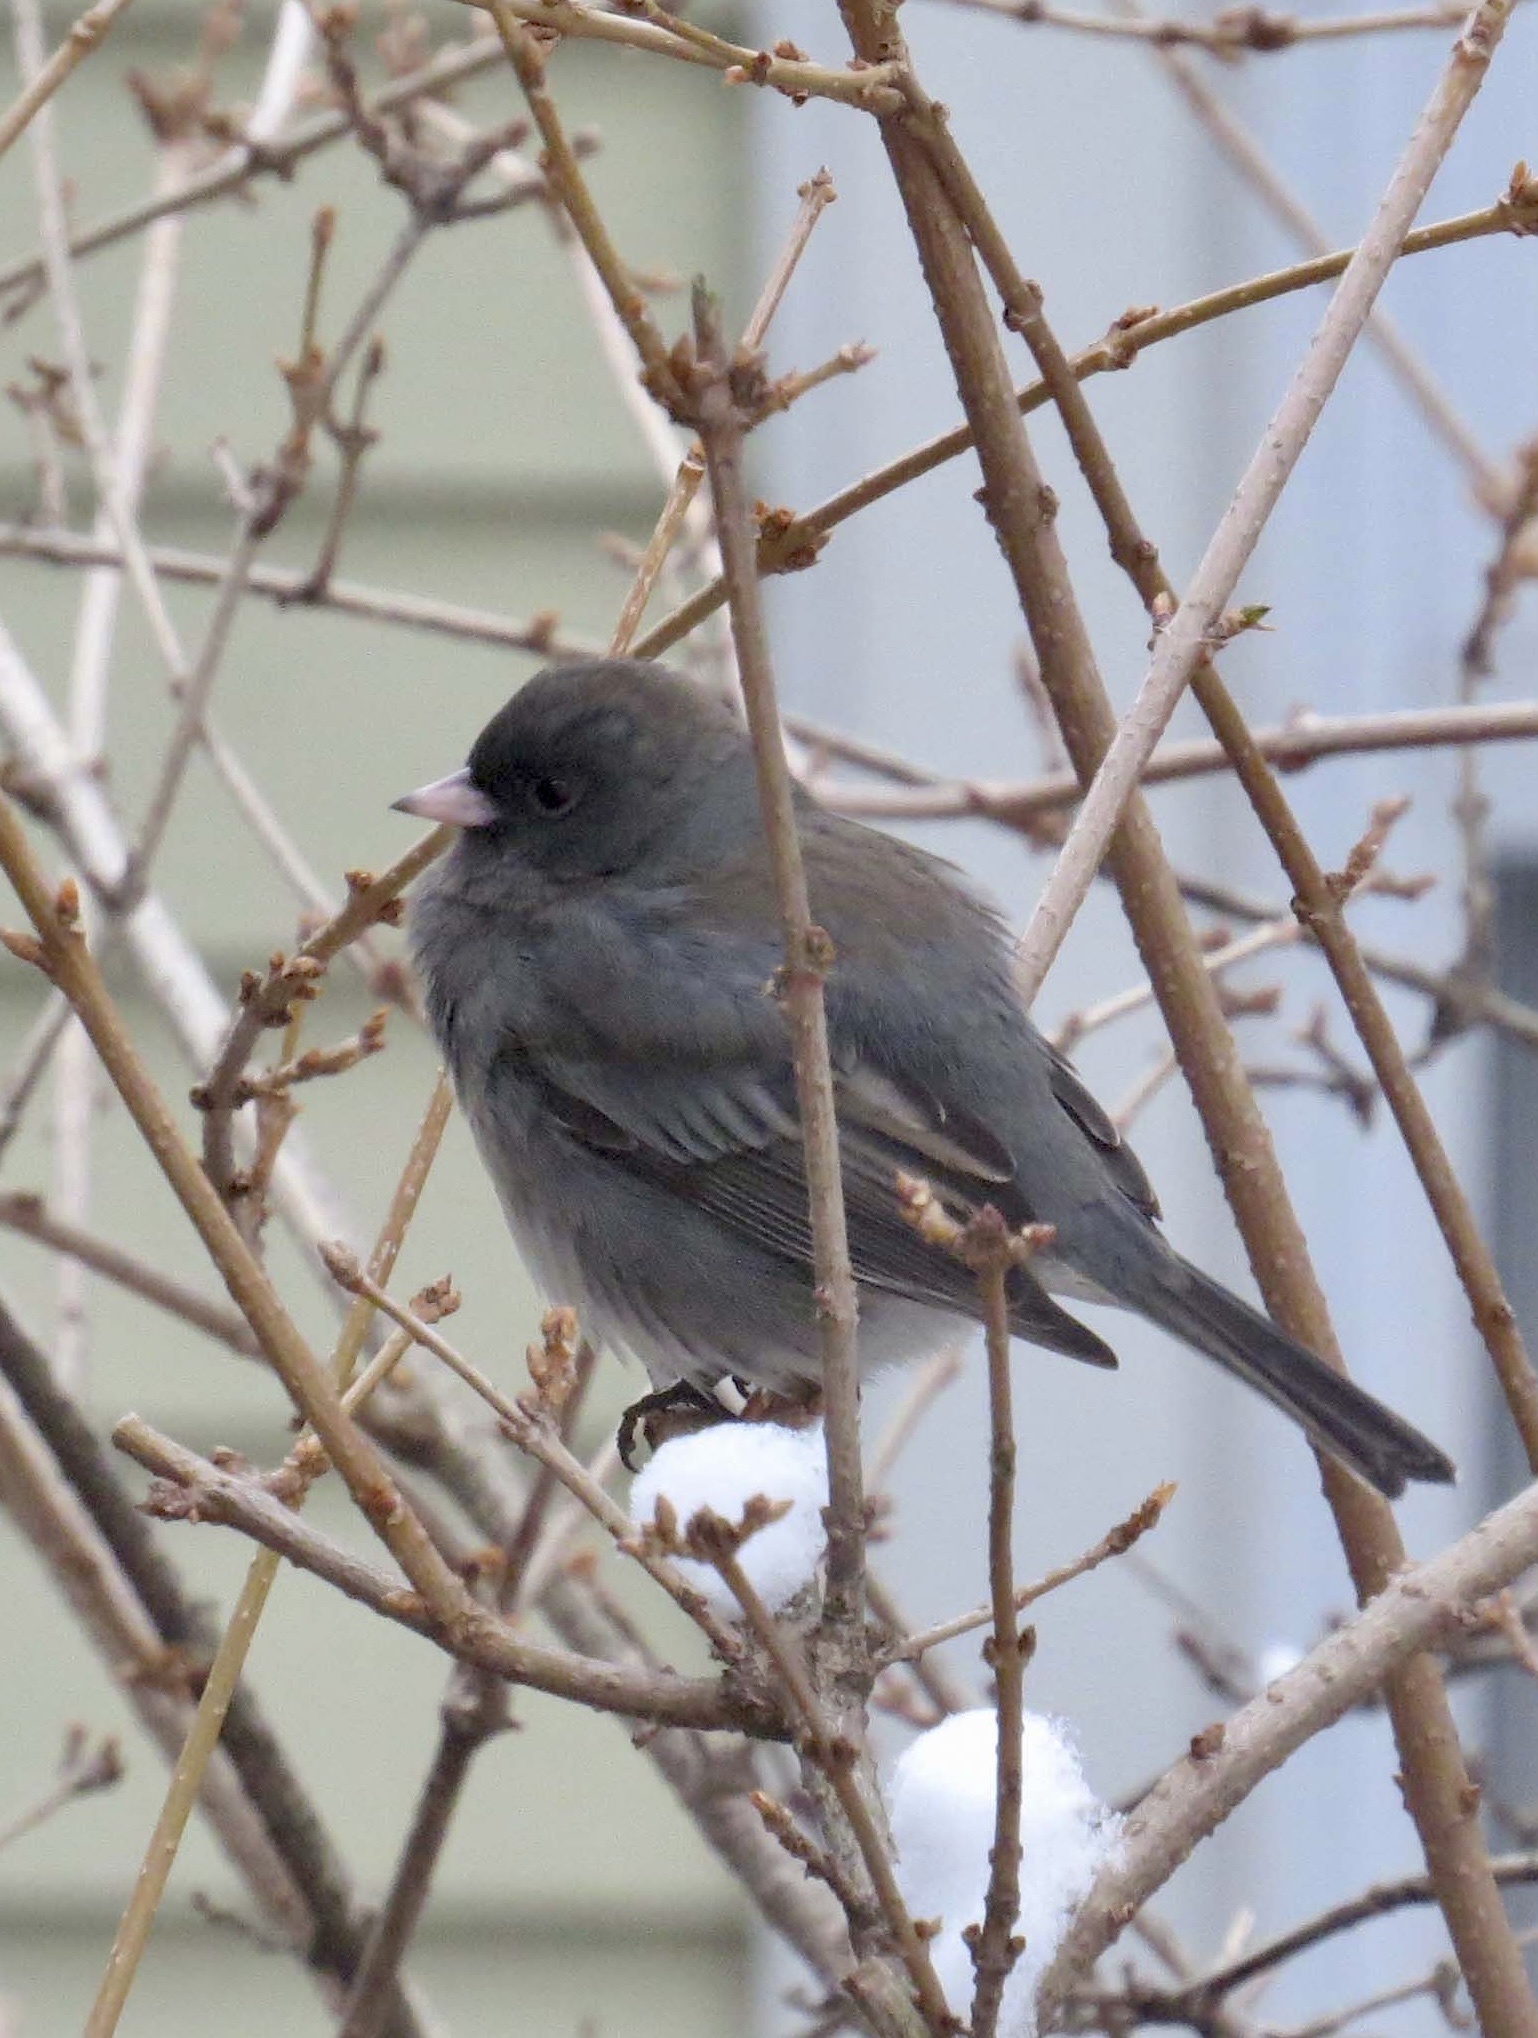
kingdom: Animalia
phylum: Chordata
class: Aves
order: Passeriformes
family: Passerellidae
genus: Junco
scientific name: Junco hyemalis
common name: Dark-eyed junco
